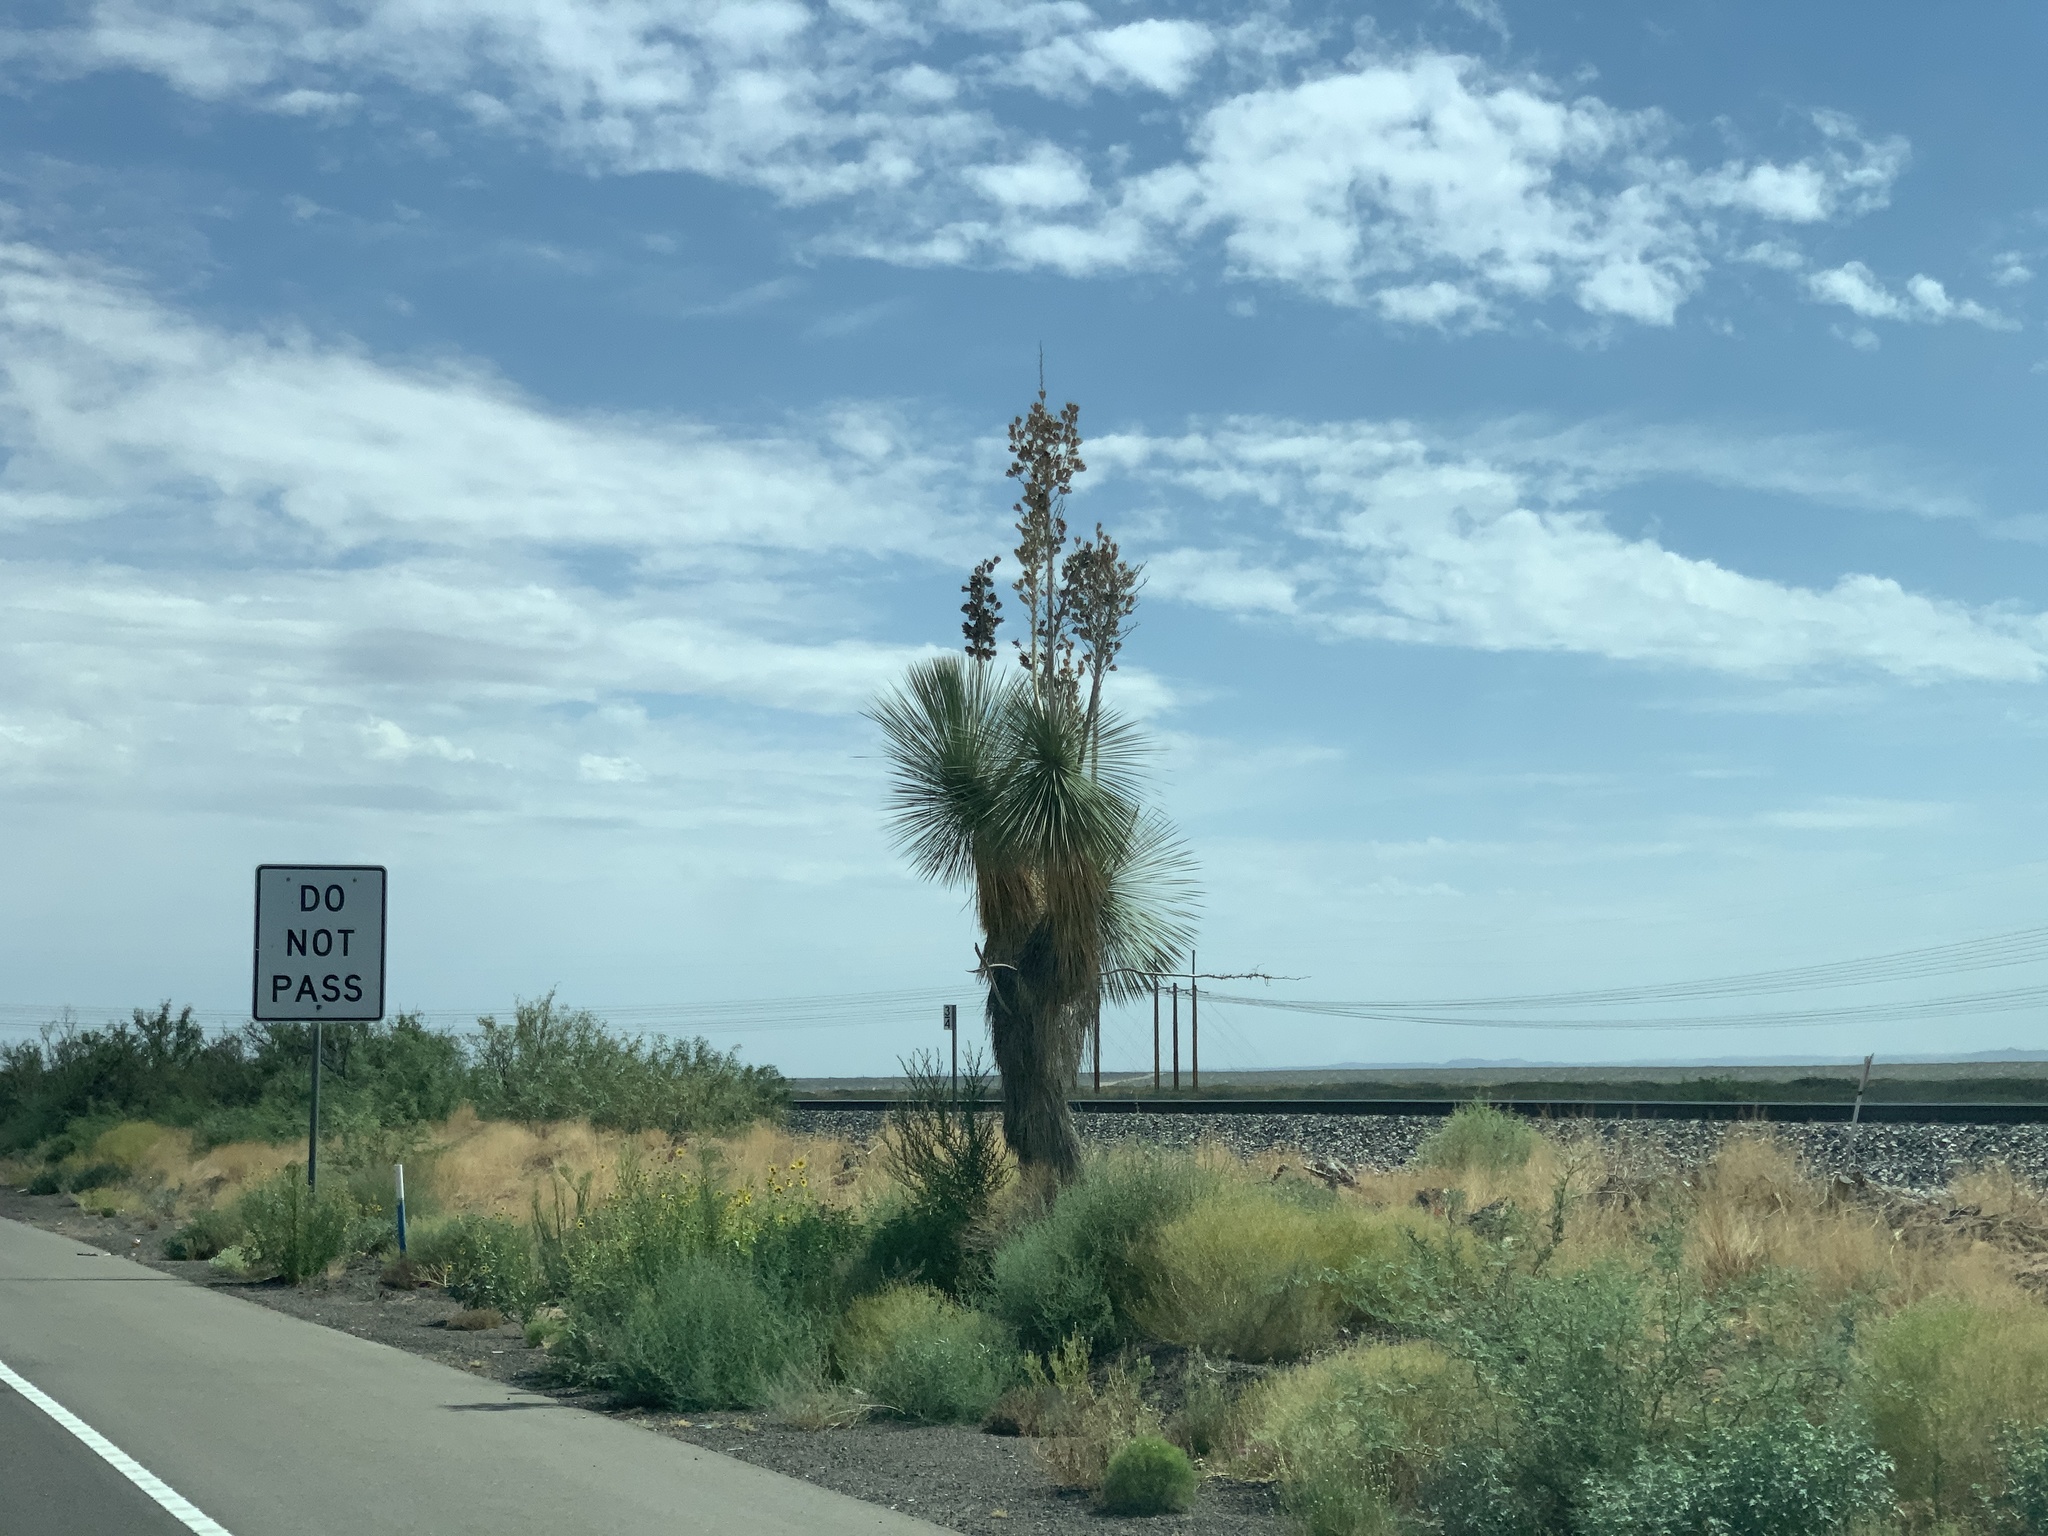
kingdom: Plantae
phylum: Tracheophyta
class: Liliopsida
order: Asparagales
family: Asparagaceae
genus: Yucca
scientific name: Yucca elata
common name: Palmella
